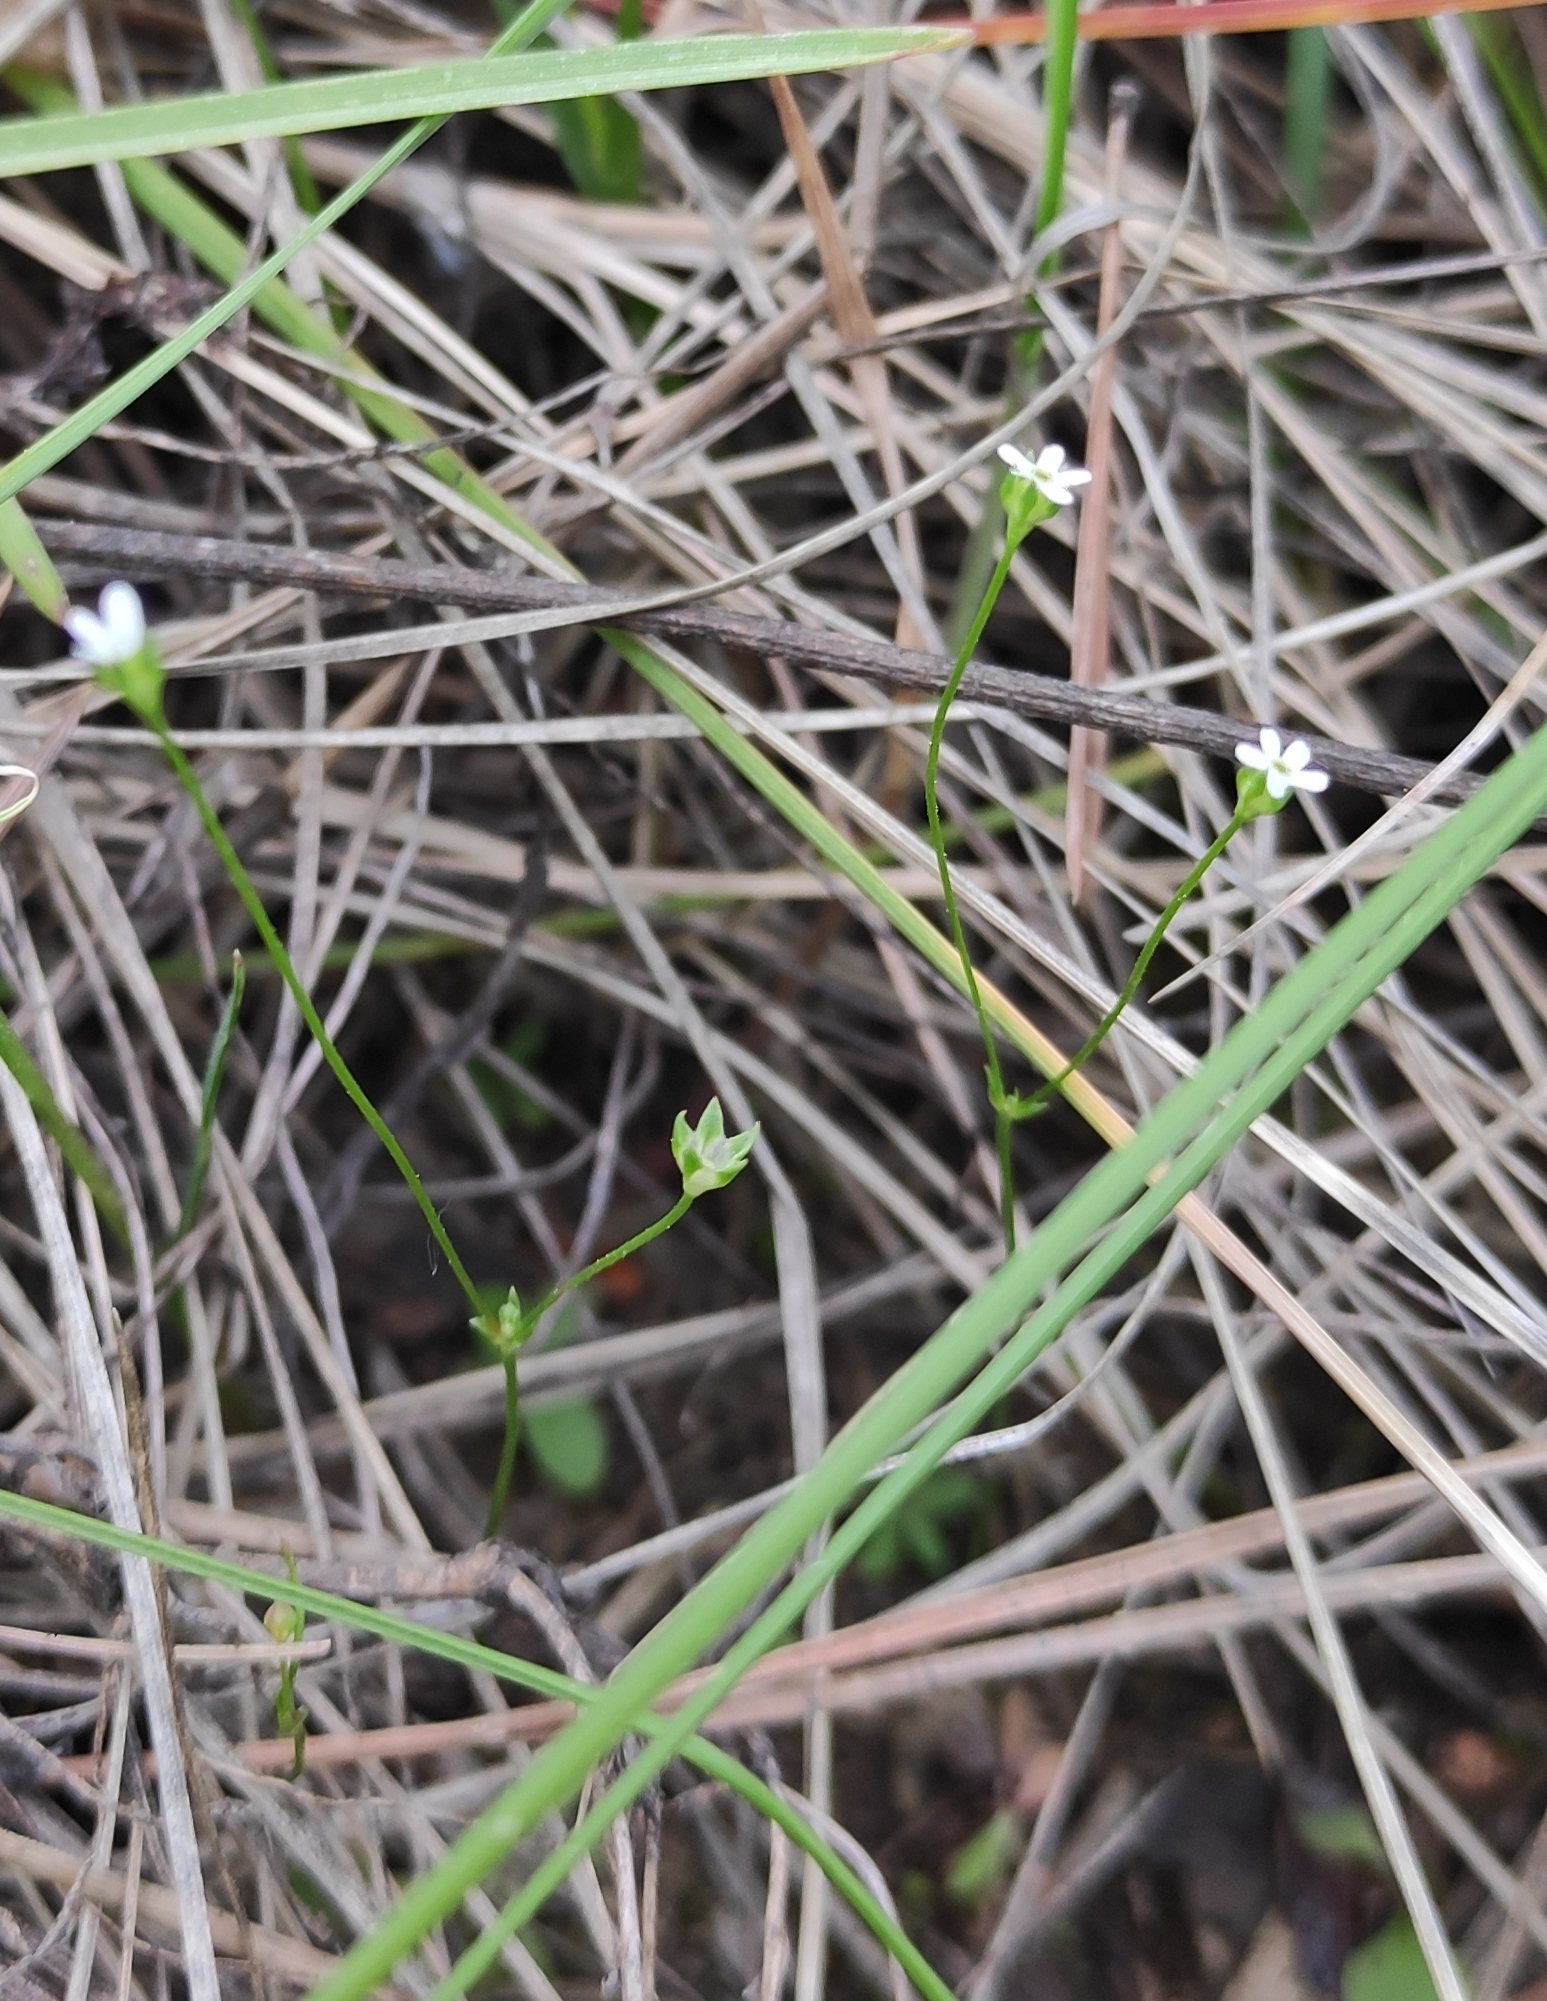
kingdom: Plantae
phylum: Tracheophyta
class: Magnoliopsida
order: Ericales
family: Primulaceae
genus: Androsace
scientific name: Androsace septentrionalis
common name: Hairy northern fairy-candelabra
